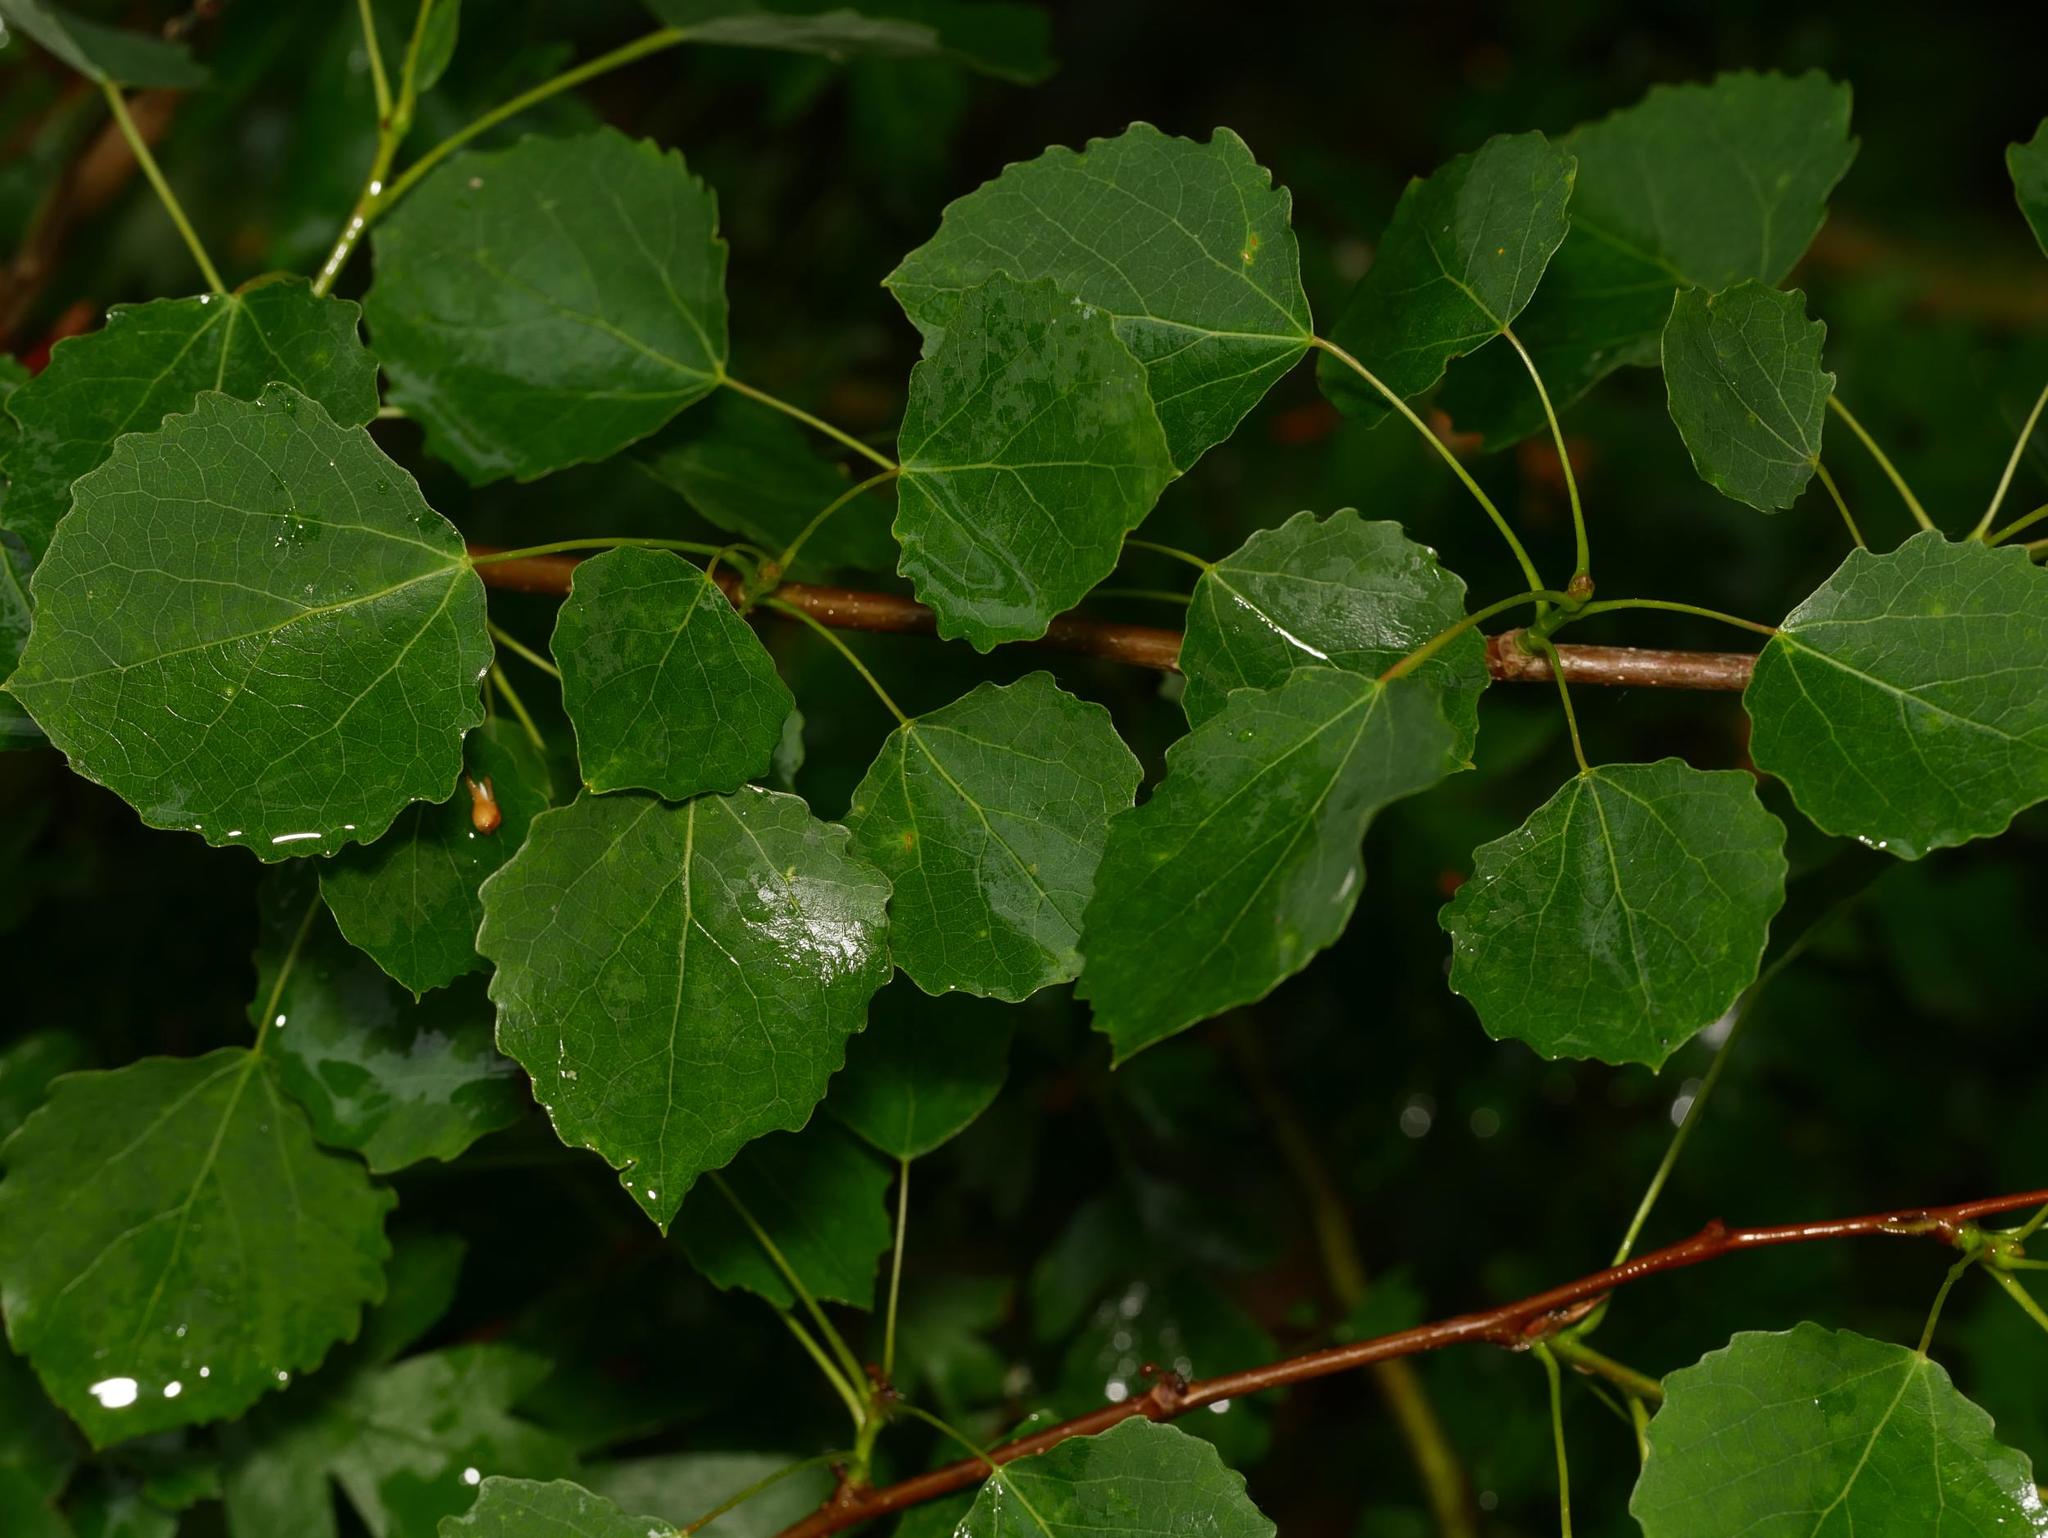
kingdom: Plantae
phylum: Tracheophyta
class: Magnoliopsida
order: Malpighiales
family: Salicaceae
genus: Populus
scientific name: Populus tremula
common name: European aspen
